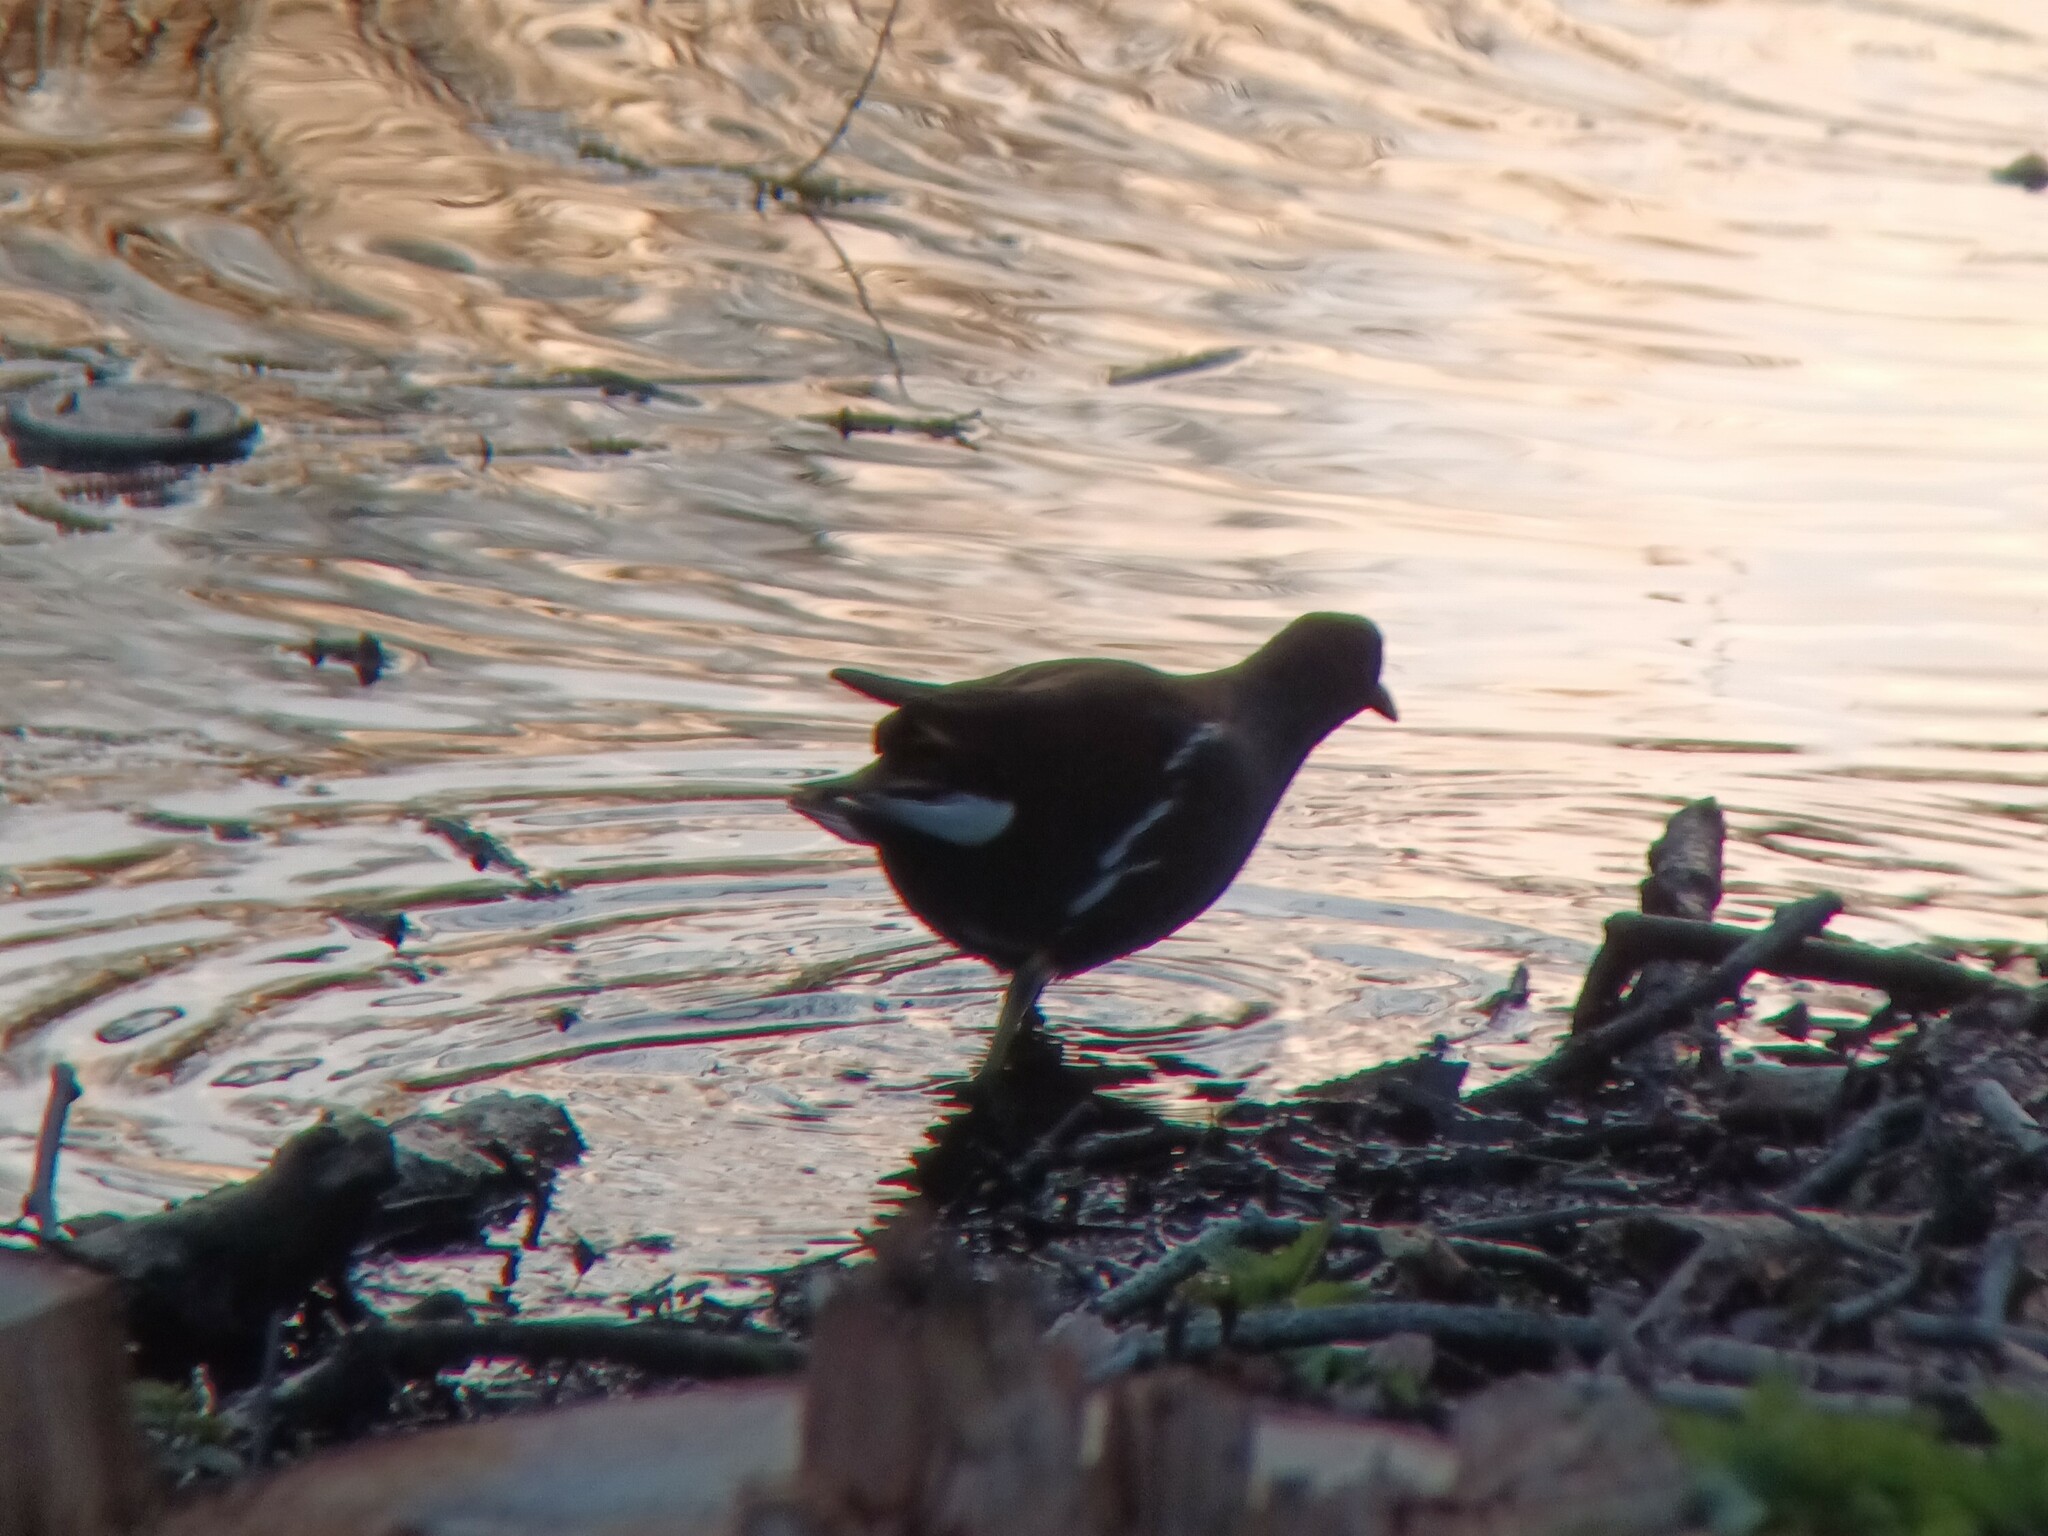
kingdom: Animalia
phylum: Chordata
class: Aves
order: Gruiformes
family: Rallidae
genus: Gallinula
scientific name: Gallinula chloropus
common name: Common moorhen
